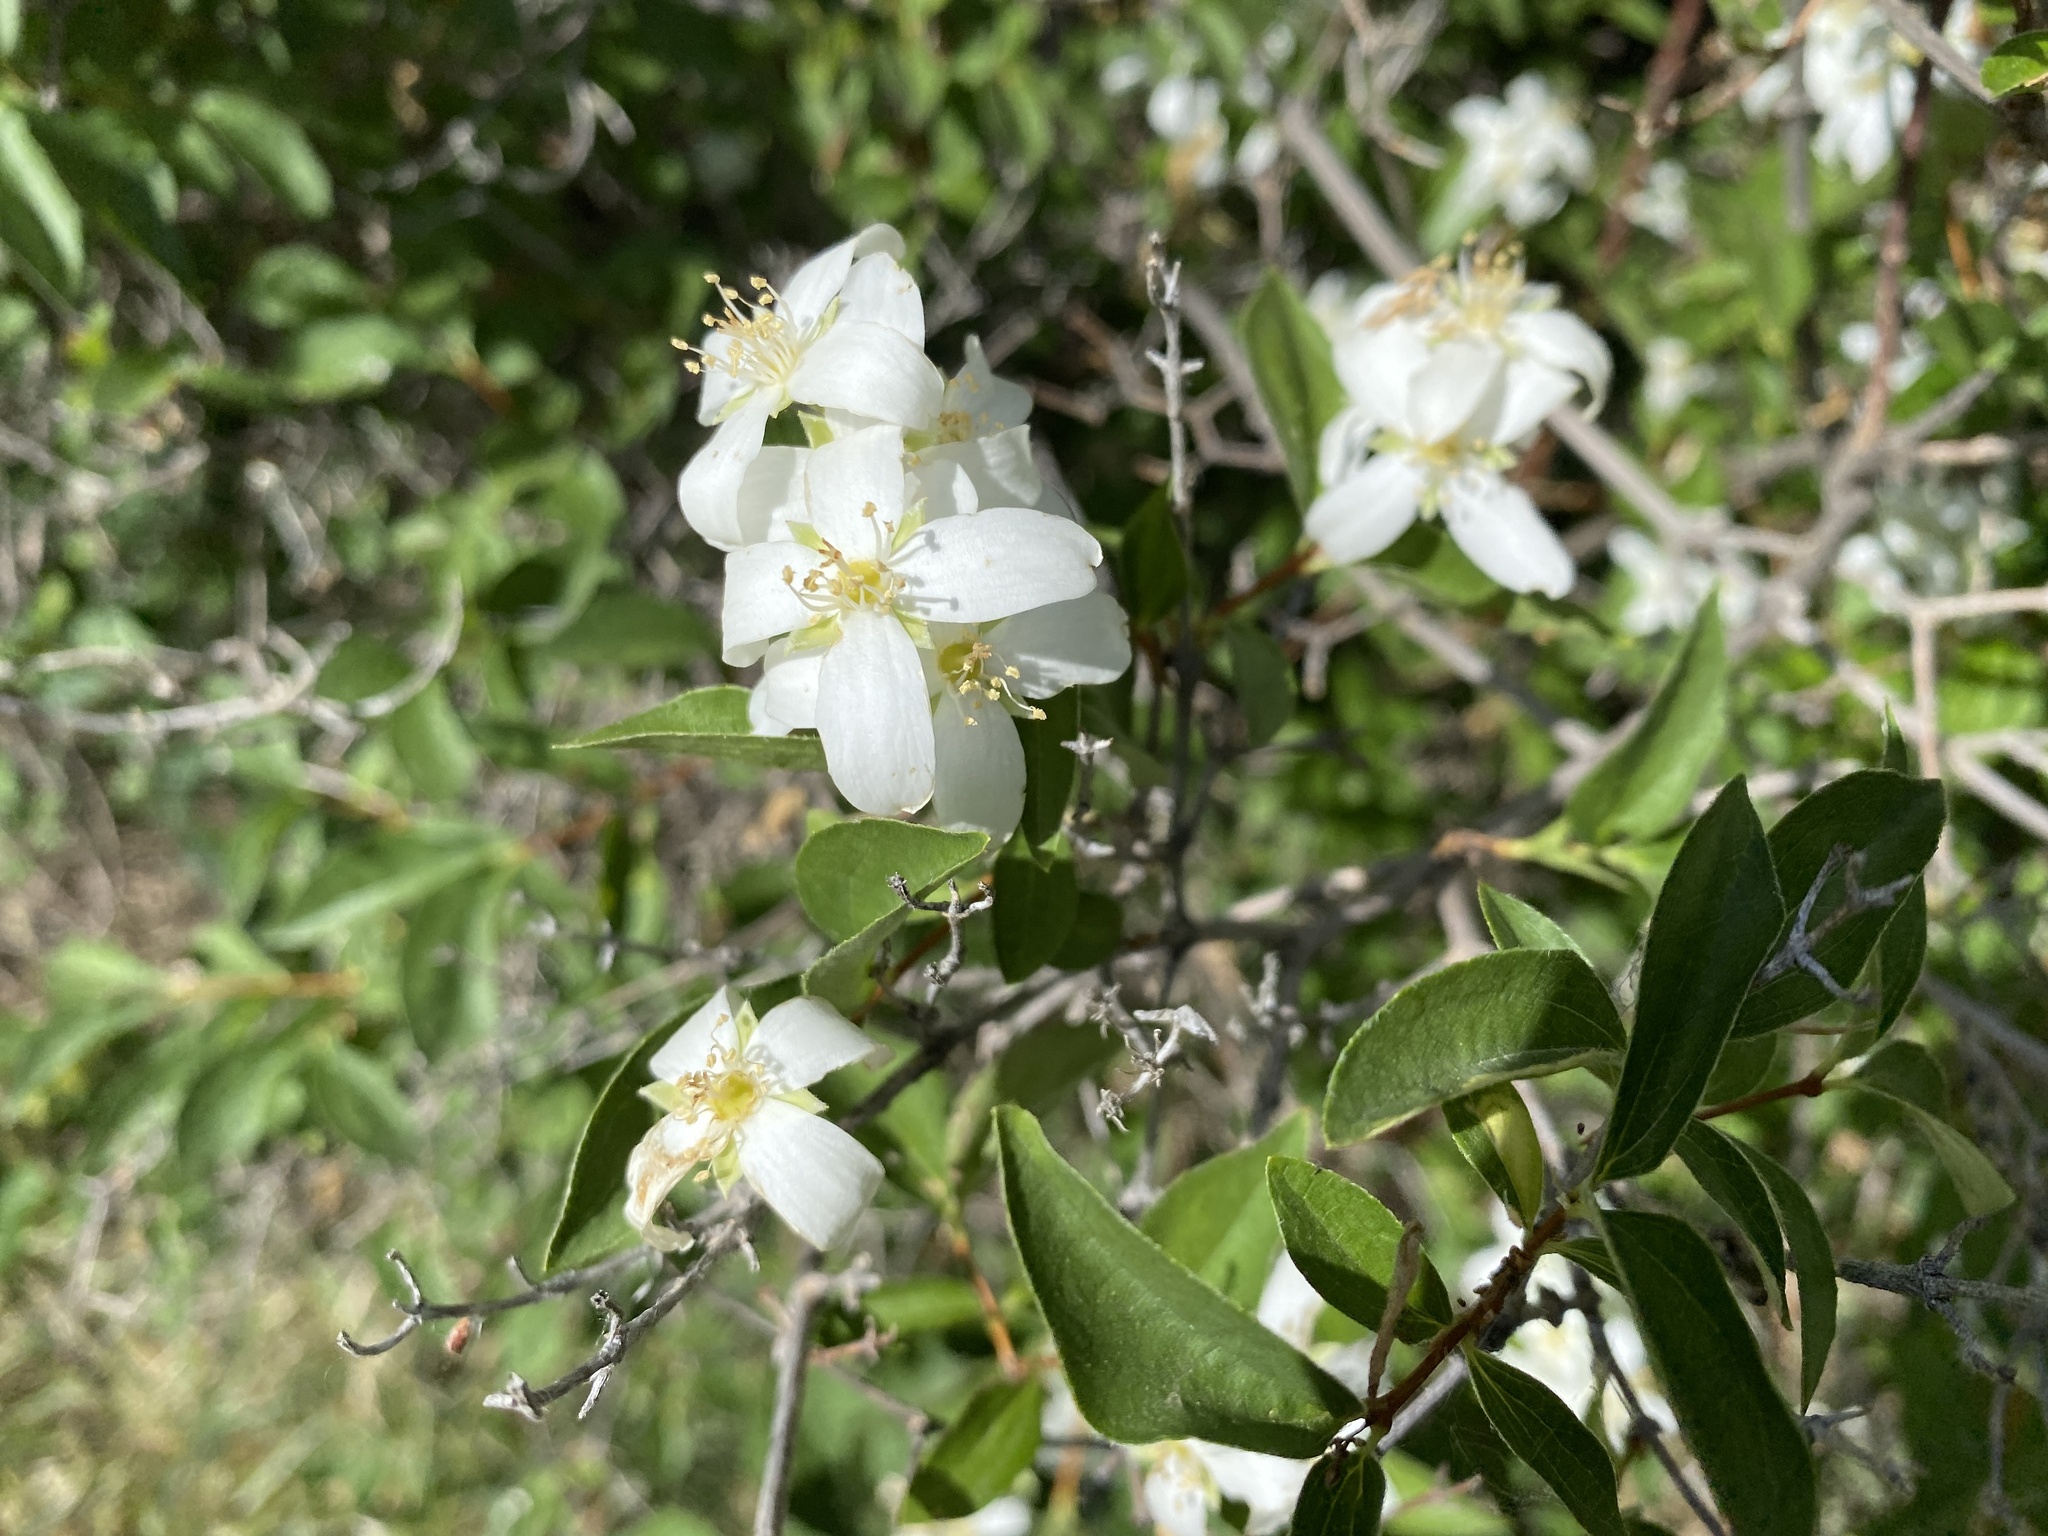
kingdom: Plantae
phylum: Tracheophyta
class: Magnoliopsida
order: Cornales
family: Hydrangeaceae
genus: Philadelphus
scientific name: Philadelphus lewisii
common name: Lewis's mock orange
